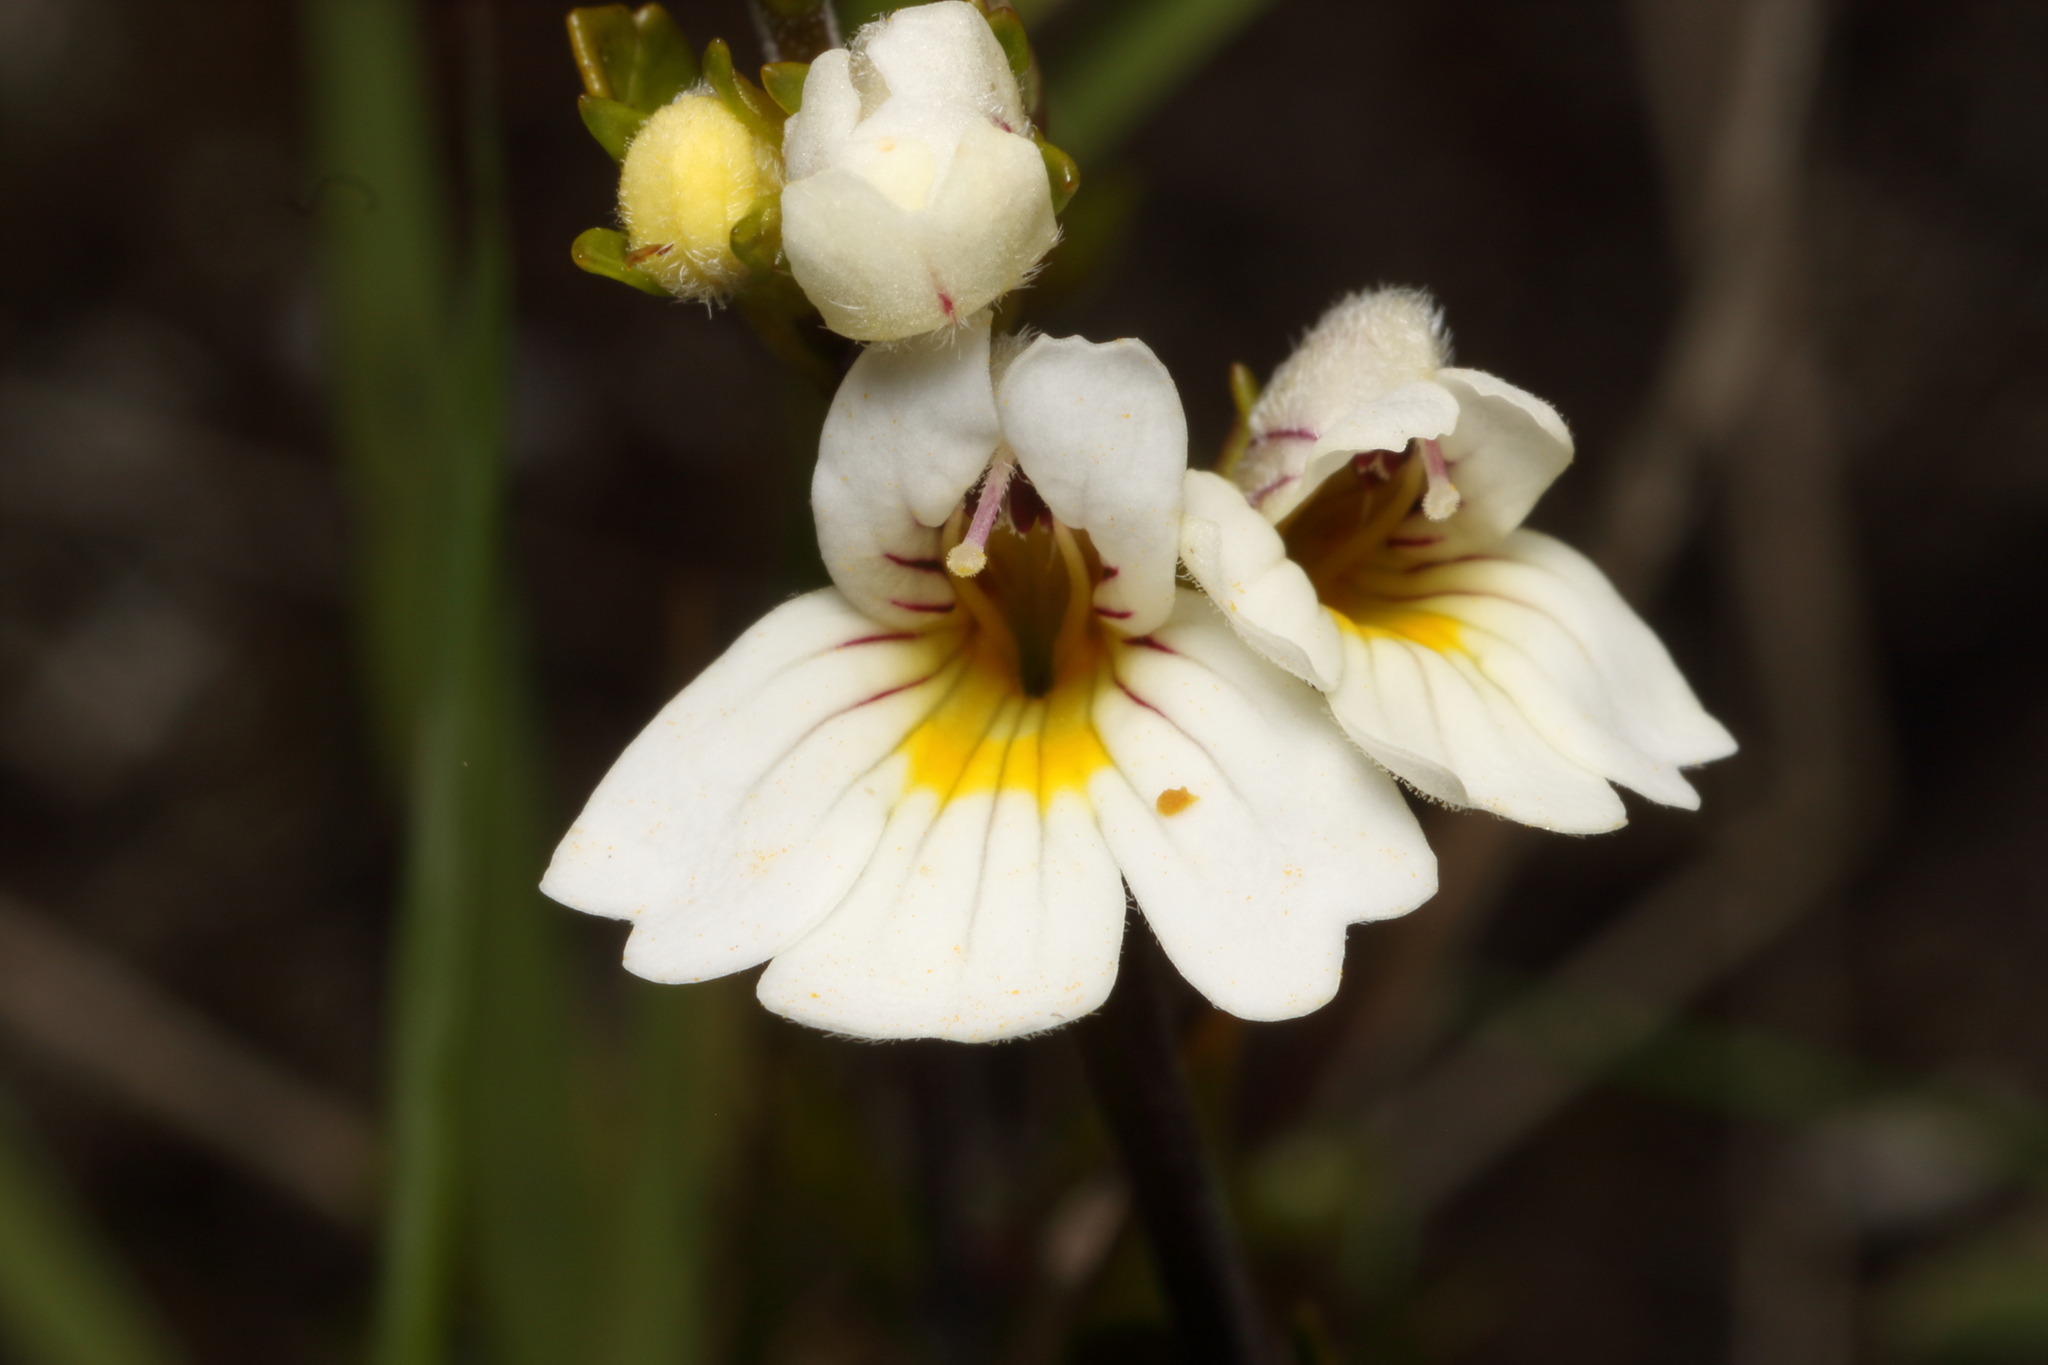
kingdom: Plantae
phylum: Tracheophyta
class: Magnoliopsida
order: Lamiales
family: Orobanchaceae
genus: Euphrasia
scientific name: Euphrasia cuneata
